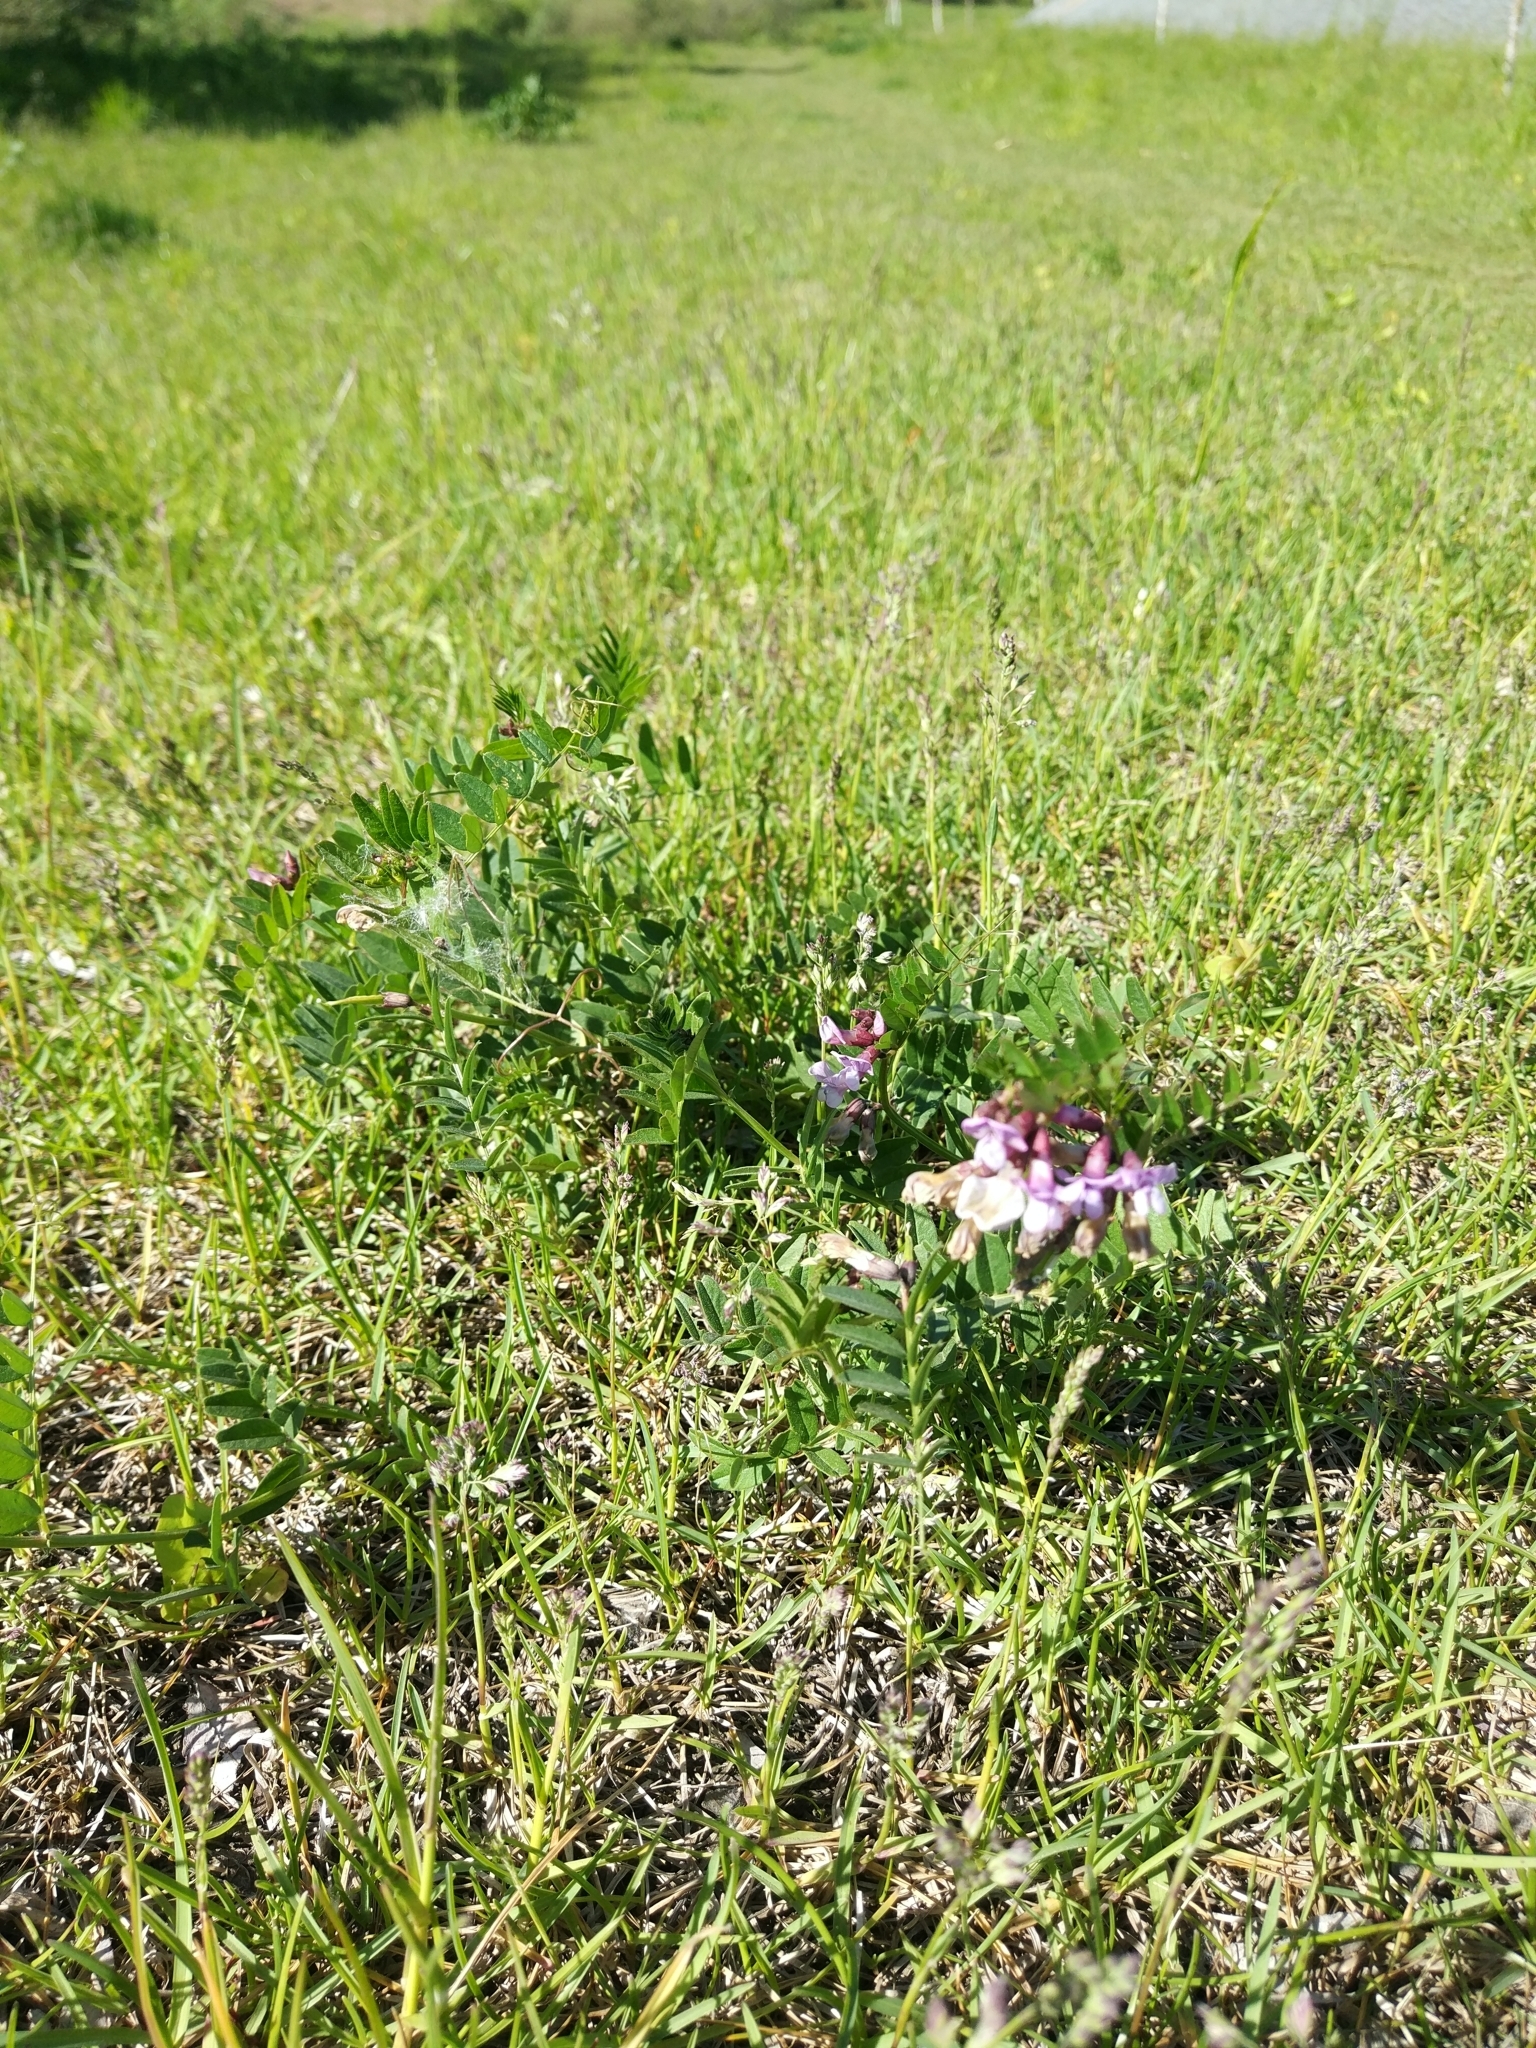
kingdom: Plantae
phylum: Tracheophyta
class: Magnoliopsida
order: Fabales
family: Fabaceae
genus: Vicia
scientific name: Vicia sepium
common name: Bush vetch
